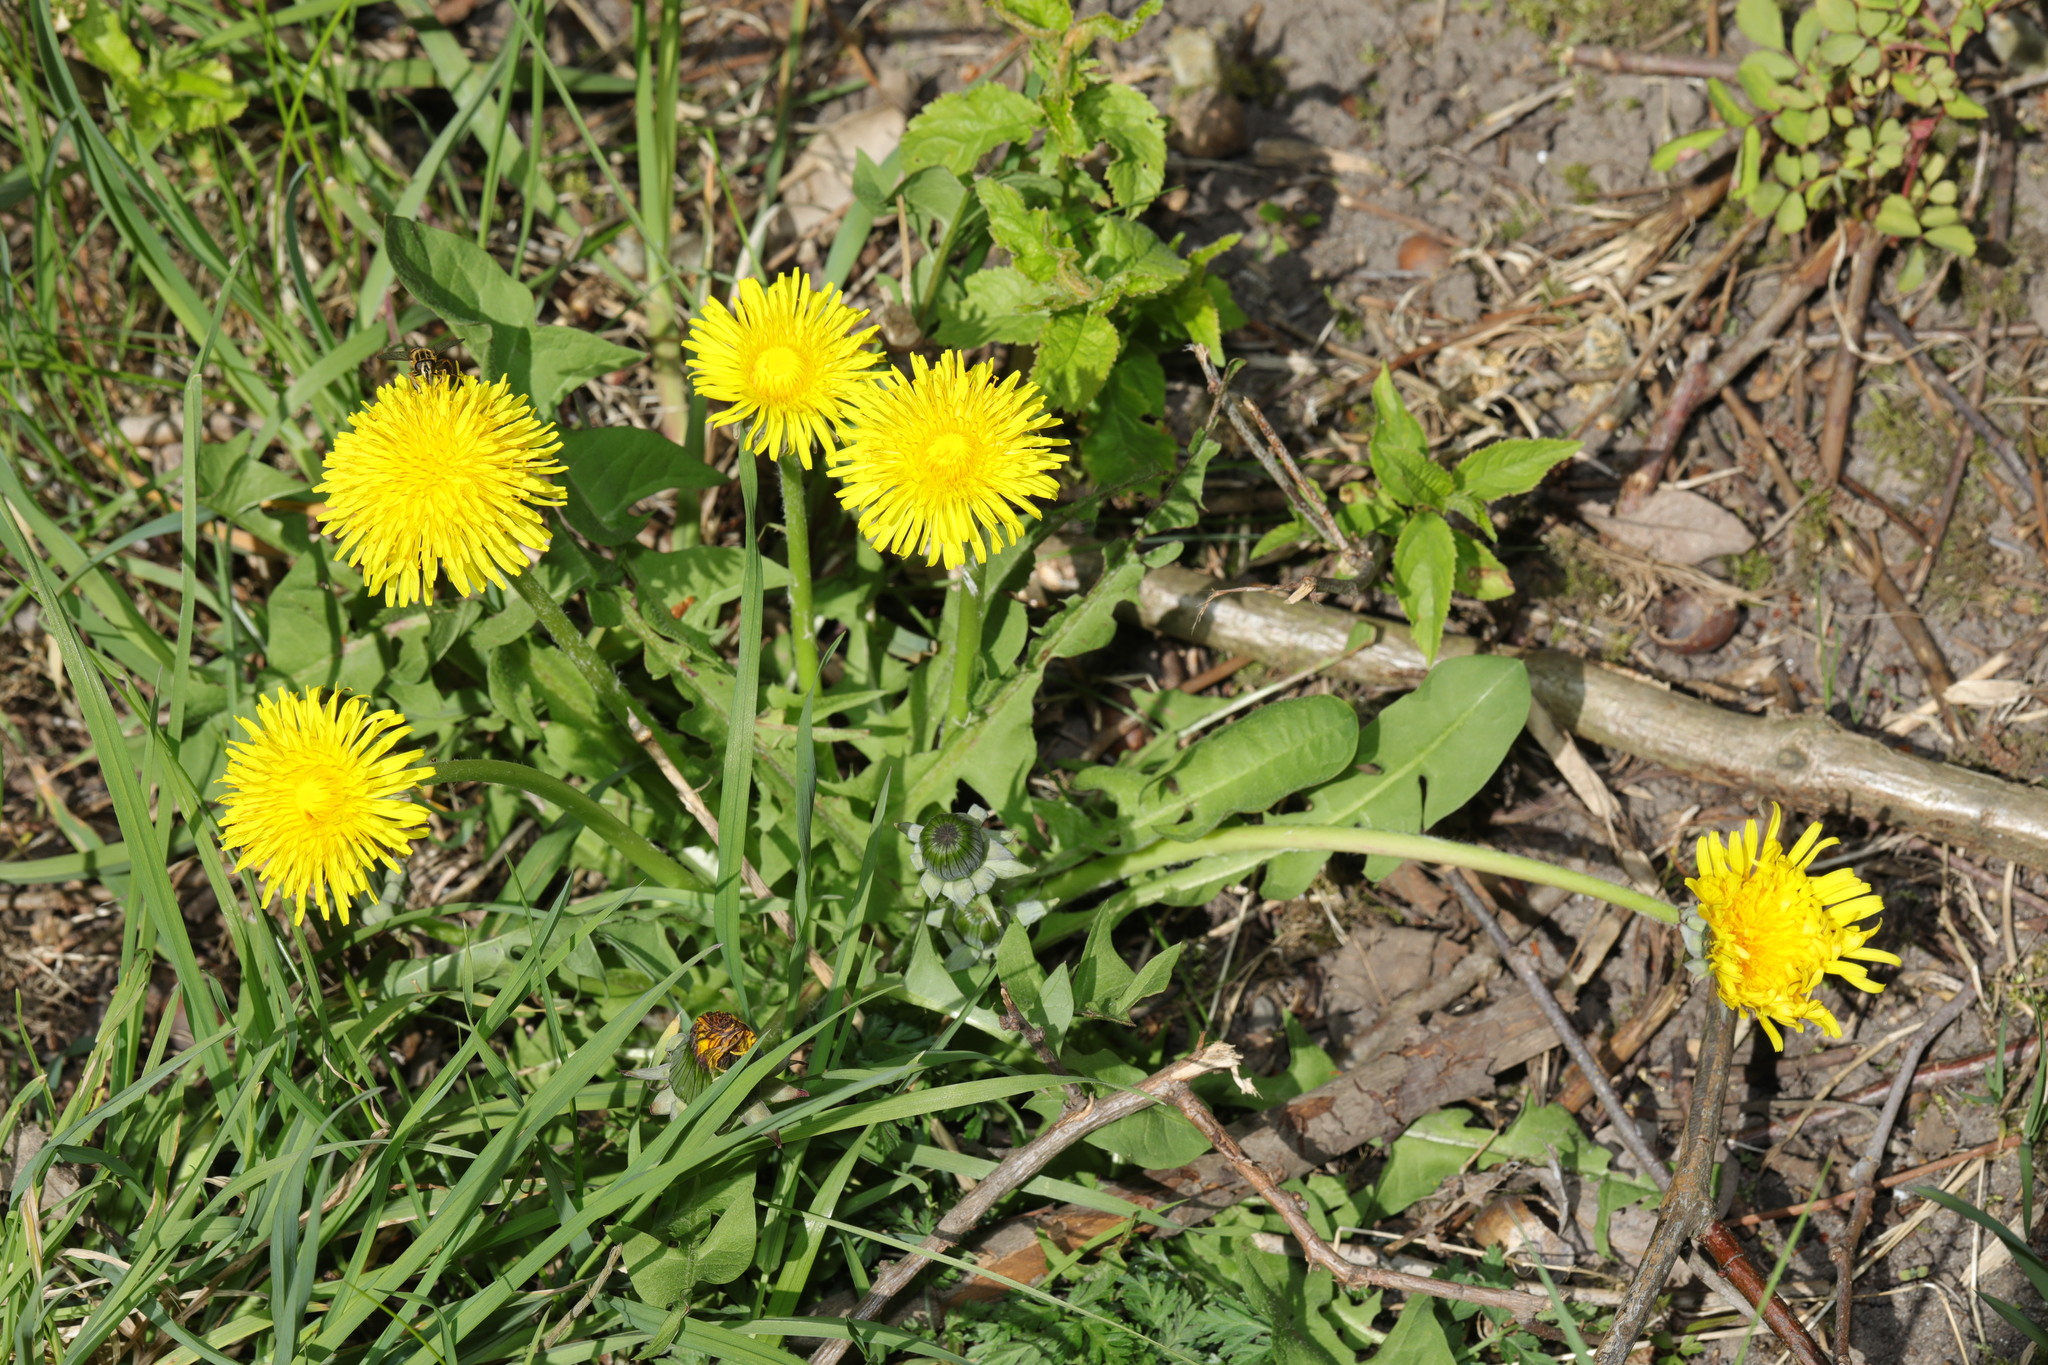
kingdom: Plantae
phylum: Tracheophyta
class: Magnoliopsida
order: Asterales
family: Asteraceae
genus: Taraxacum
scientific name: Taraxacum officinale
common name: Common dandelion
